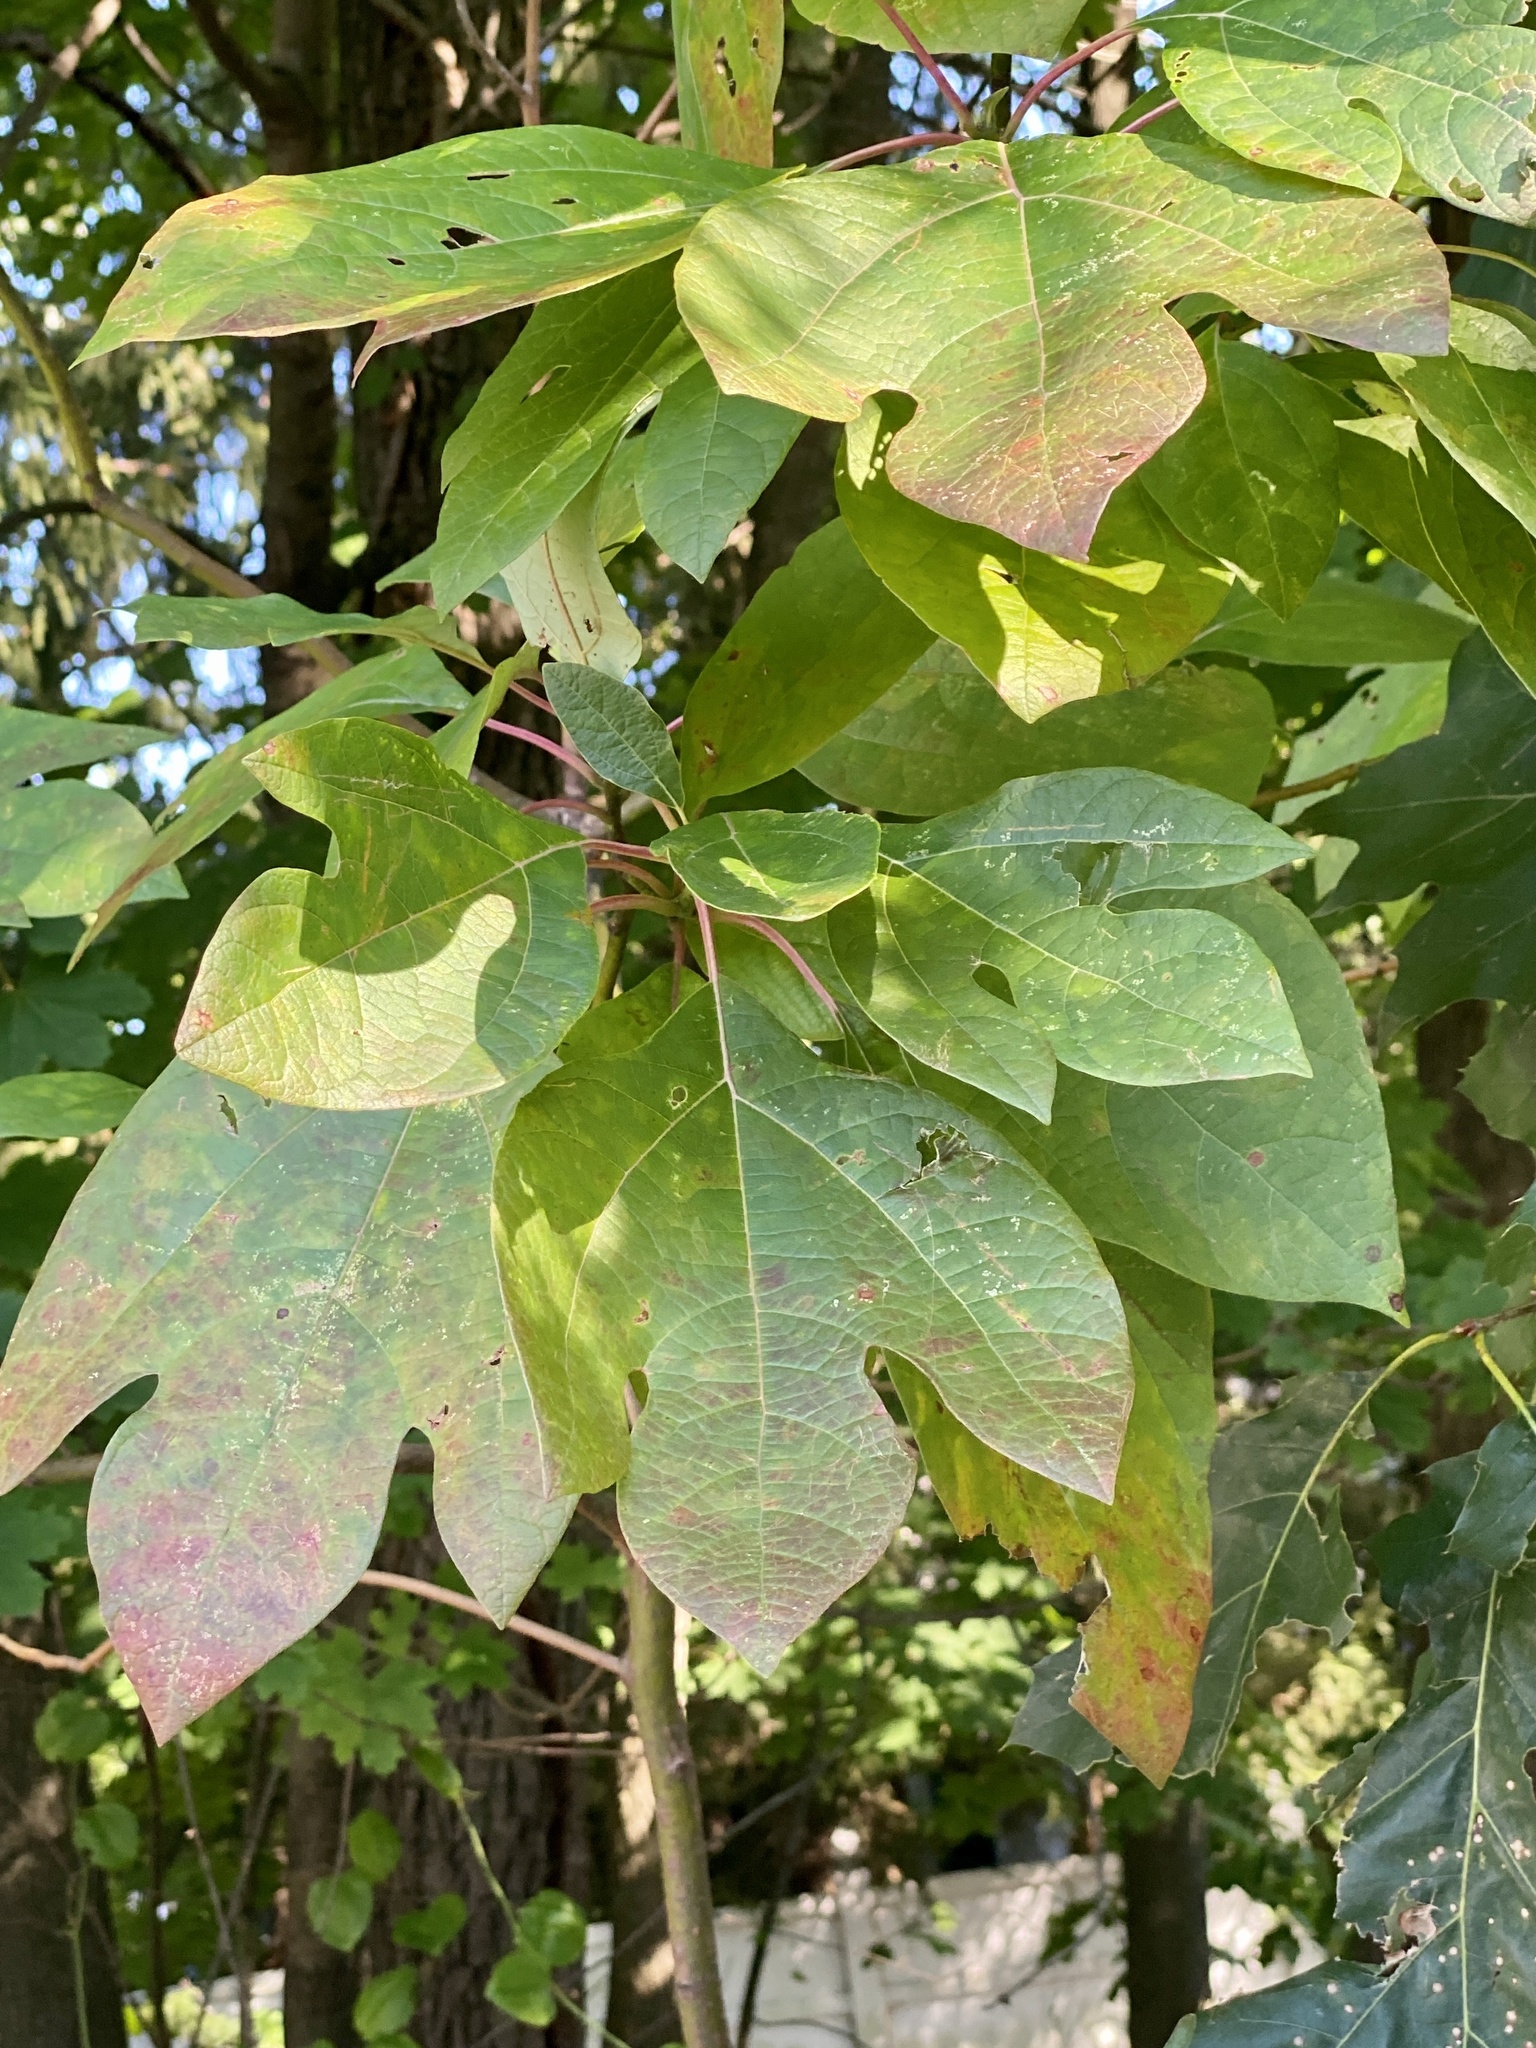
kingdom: Plantae
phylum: Tracheophyta
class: Magnoliopsida
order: Laurales
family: Lauraceae
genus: Sassafras
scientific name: Sassafras albidum
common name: Sassafras
